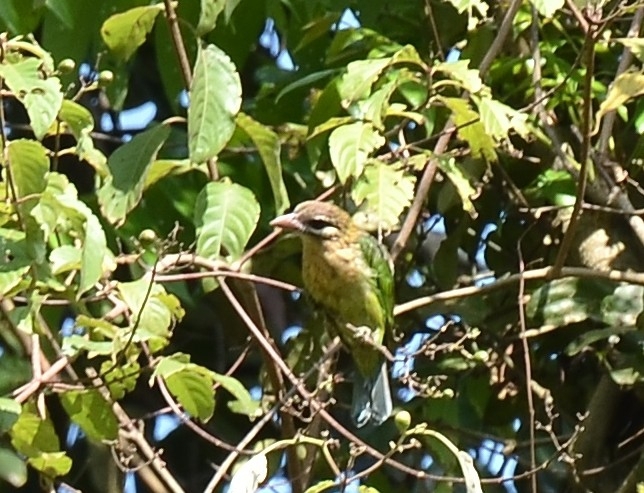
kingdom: Animalia
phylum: Chordata
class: Aves
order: Piciformes
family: Megalaimidae
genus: Psilopogon
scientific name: Psilopogon viridis
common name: White-cheeked barbet
